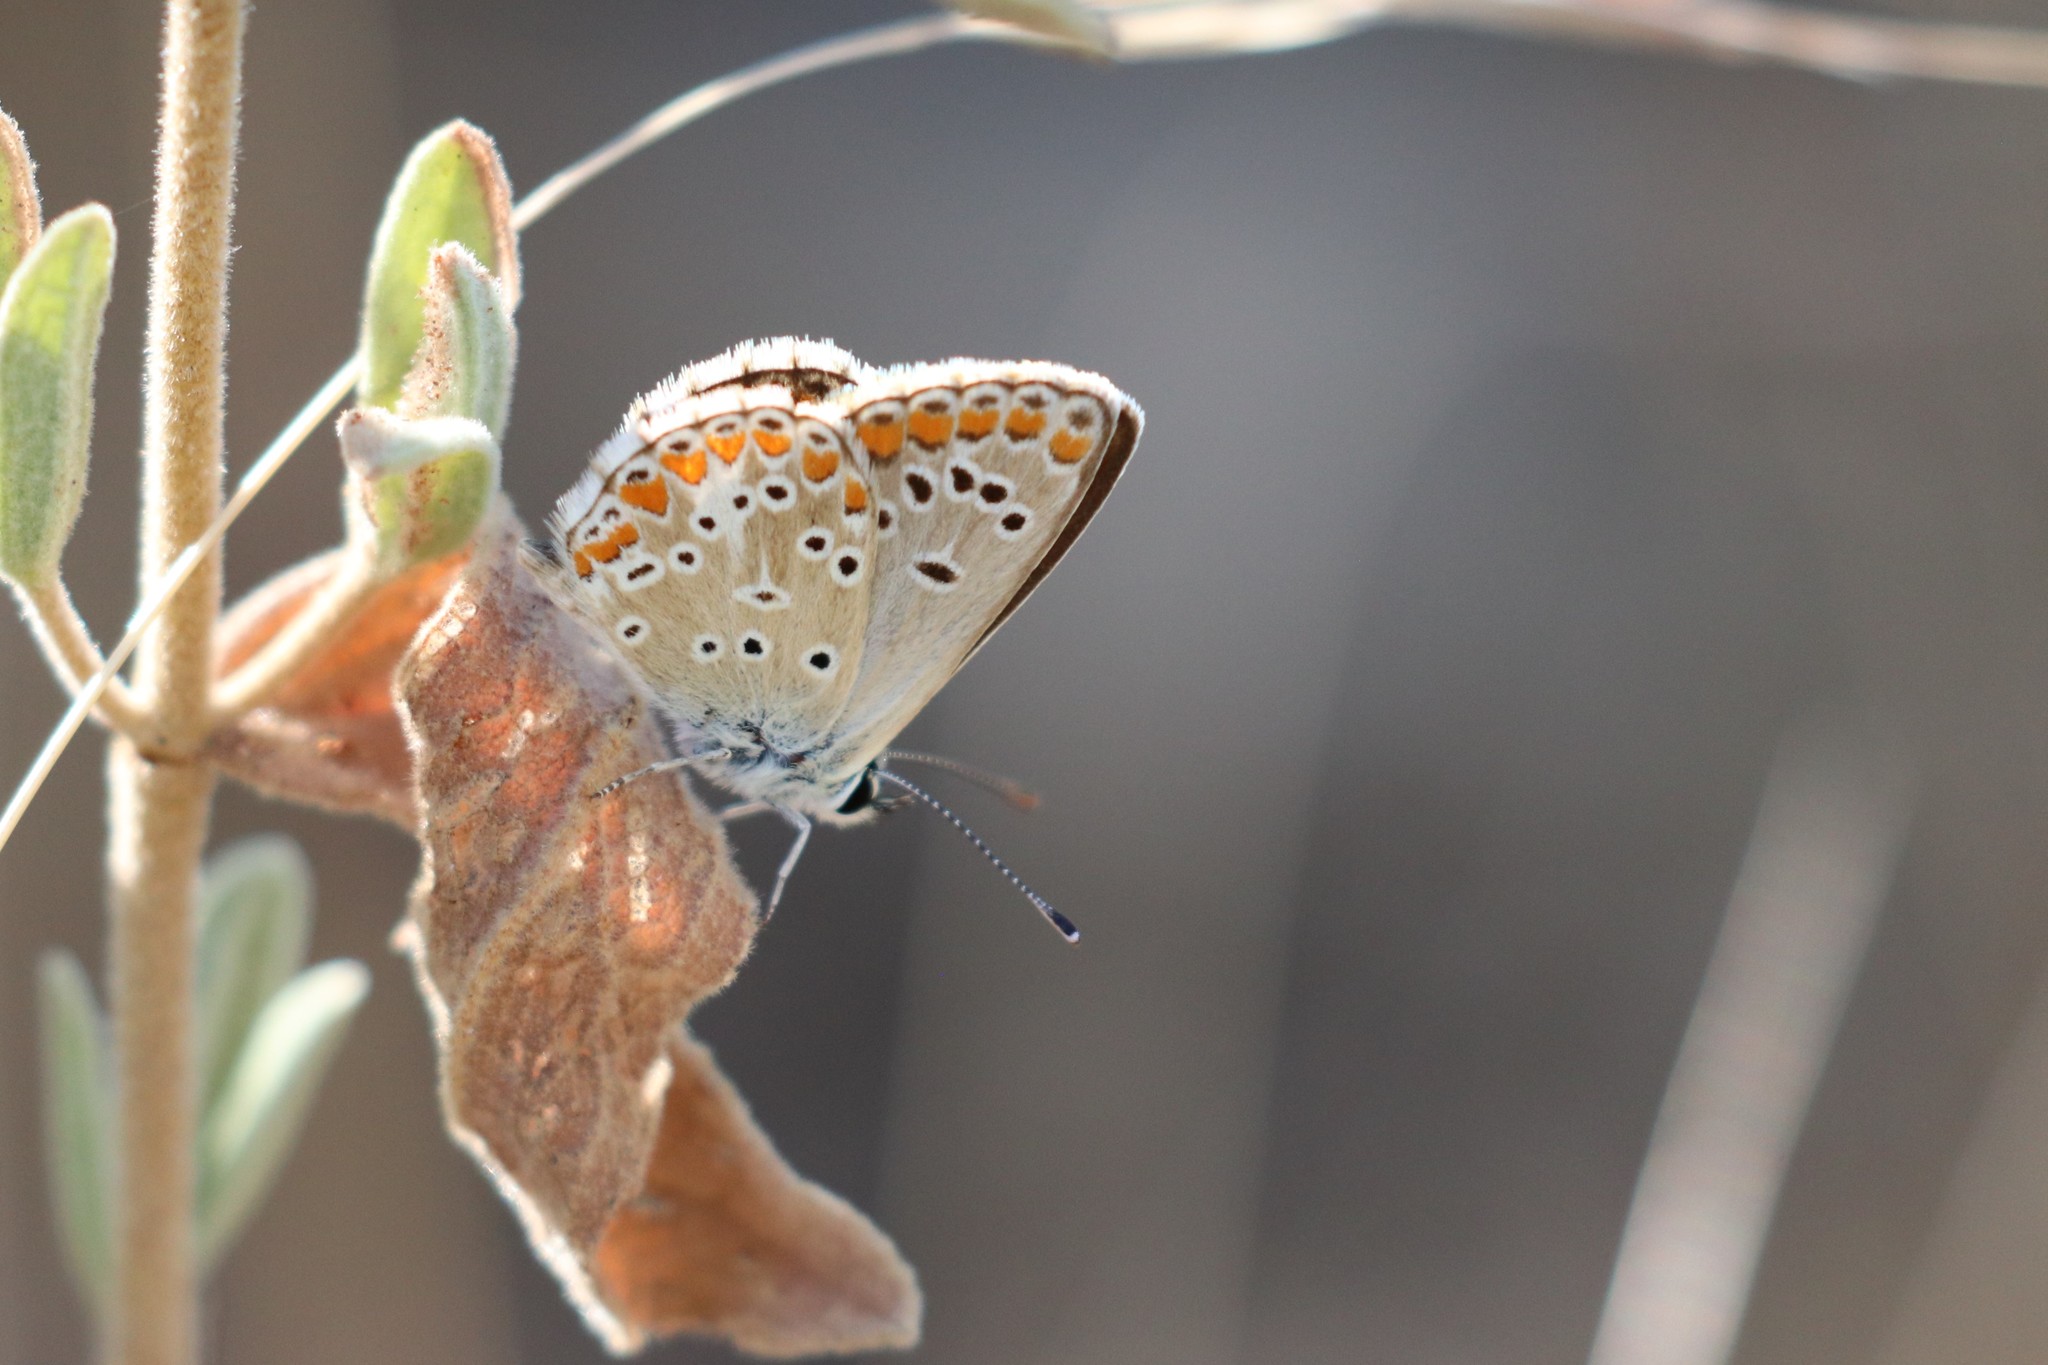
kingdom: Animalia
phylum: Arthropoda
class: Insecta
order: Lepidoptera
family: Lycaenidae
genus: Aricia
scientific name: Aricia agestis
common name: Brown argus
